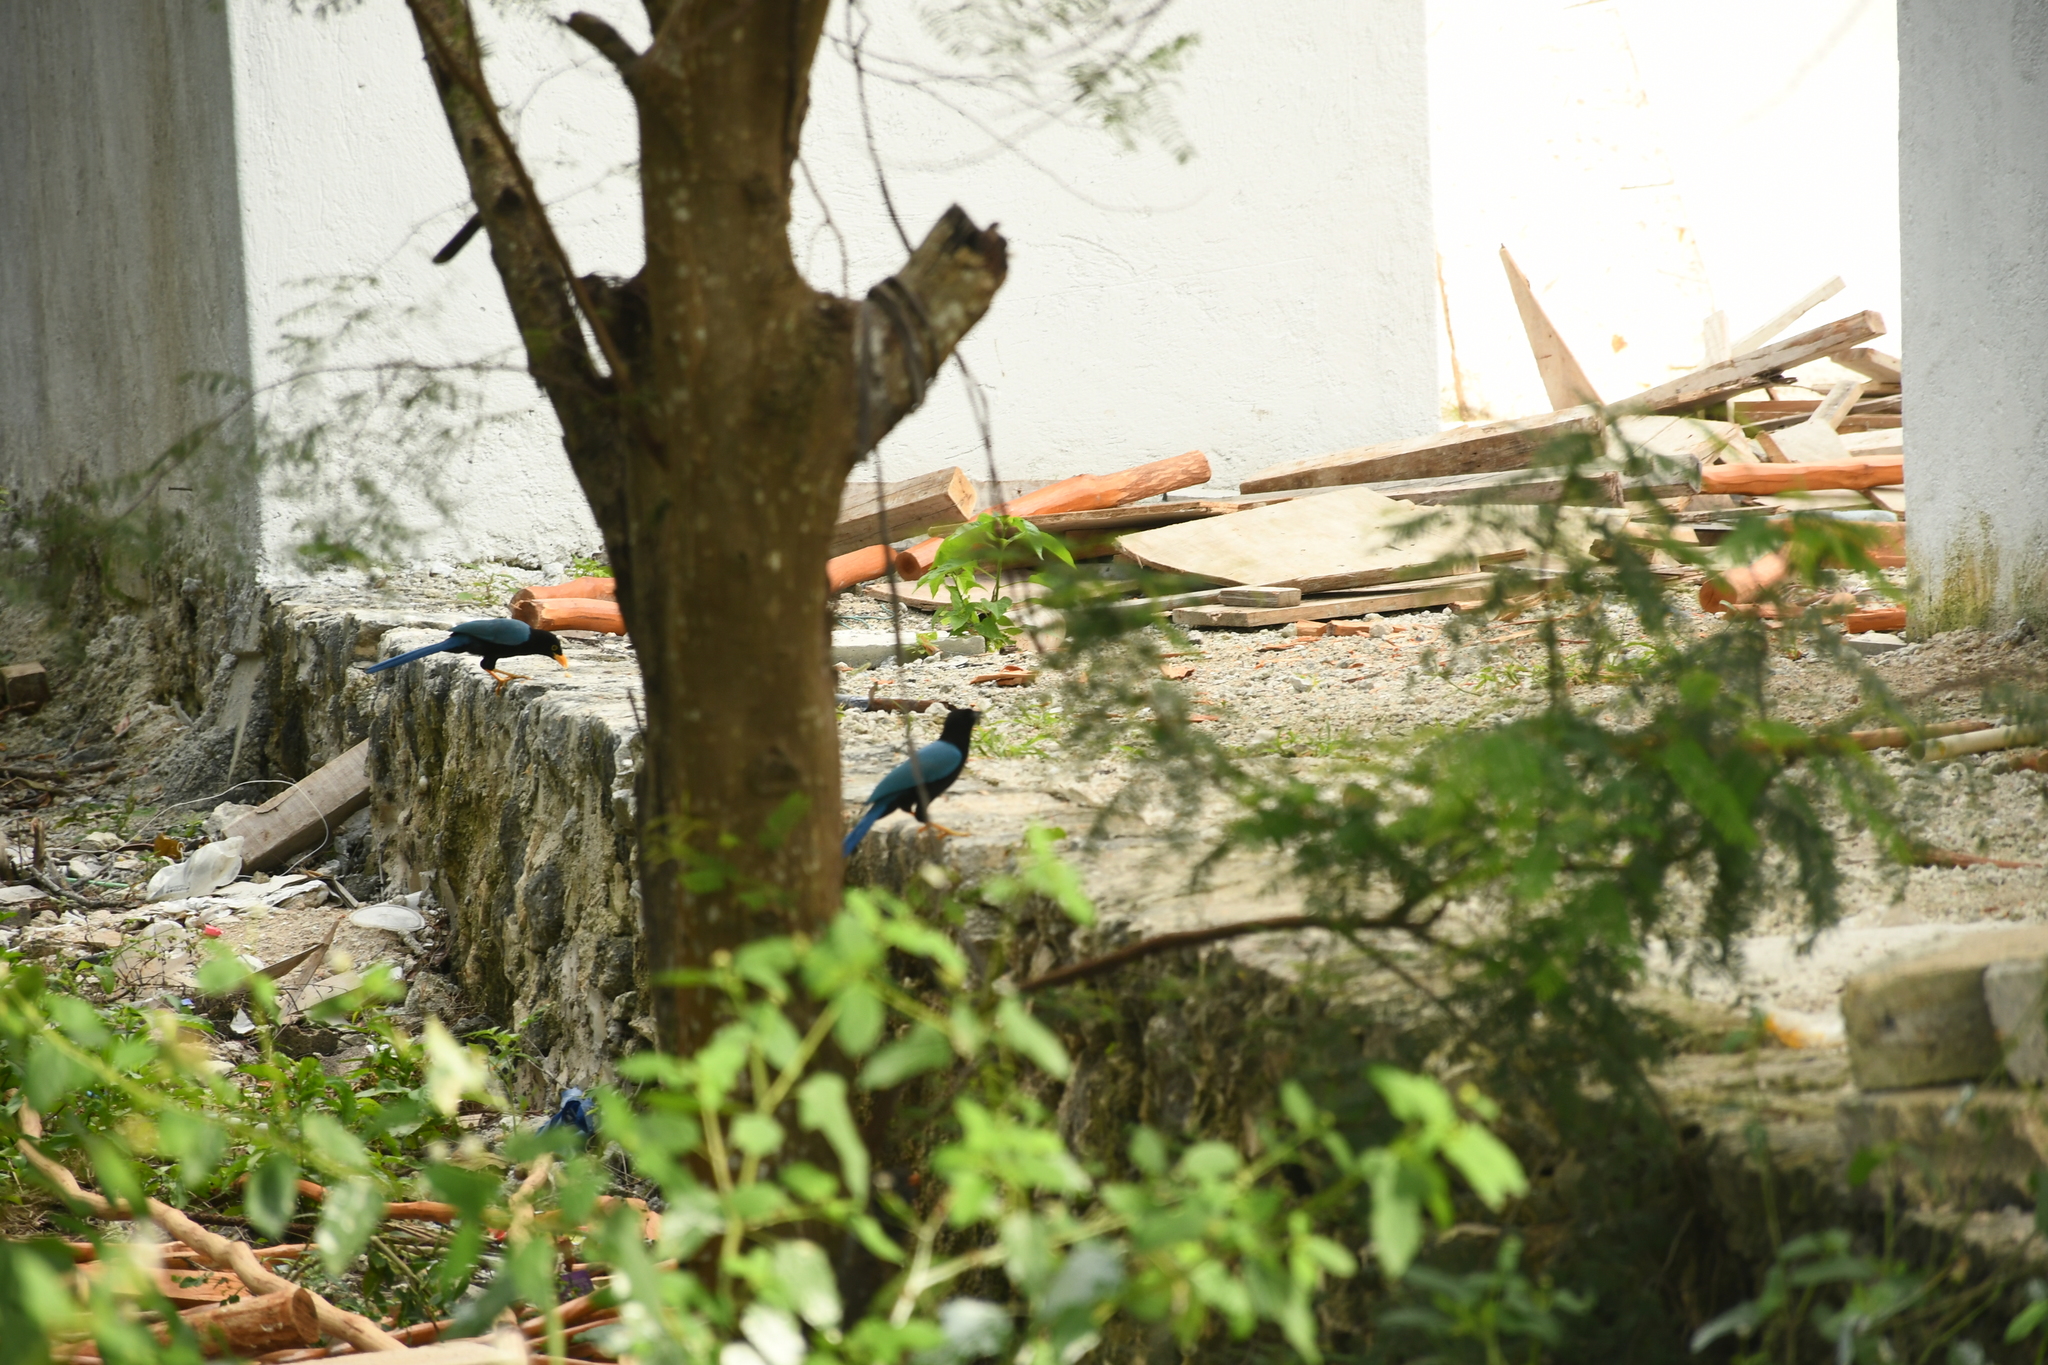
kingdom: Animalia
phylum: Chordata
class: Aves
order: Passeriformes
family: Corvidae
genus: Cyanocorax
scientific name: Cyanocorax yucatanicus
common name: Yucatan jay
